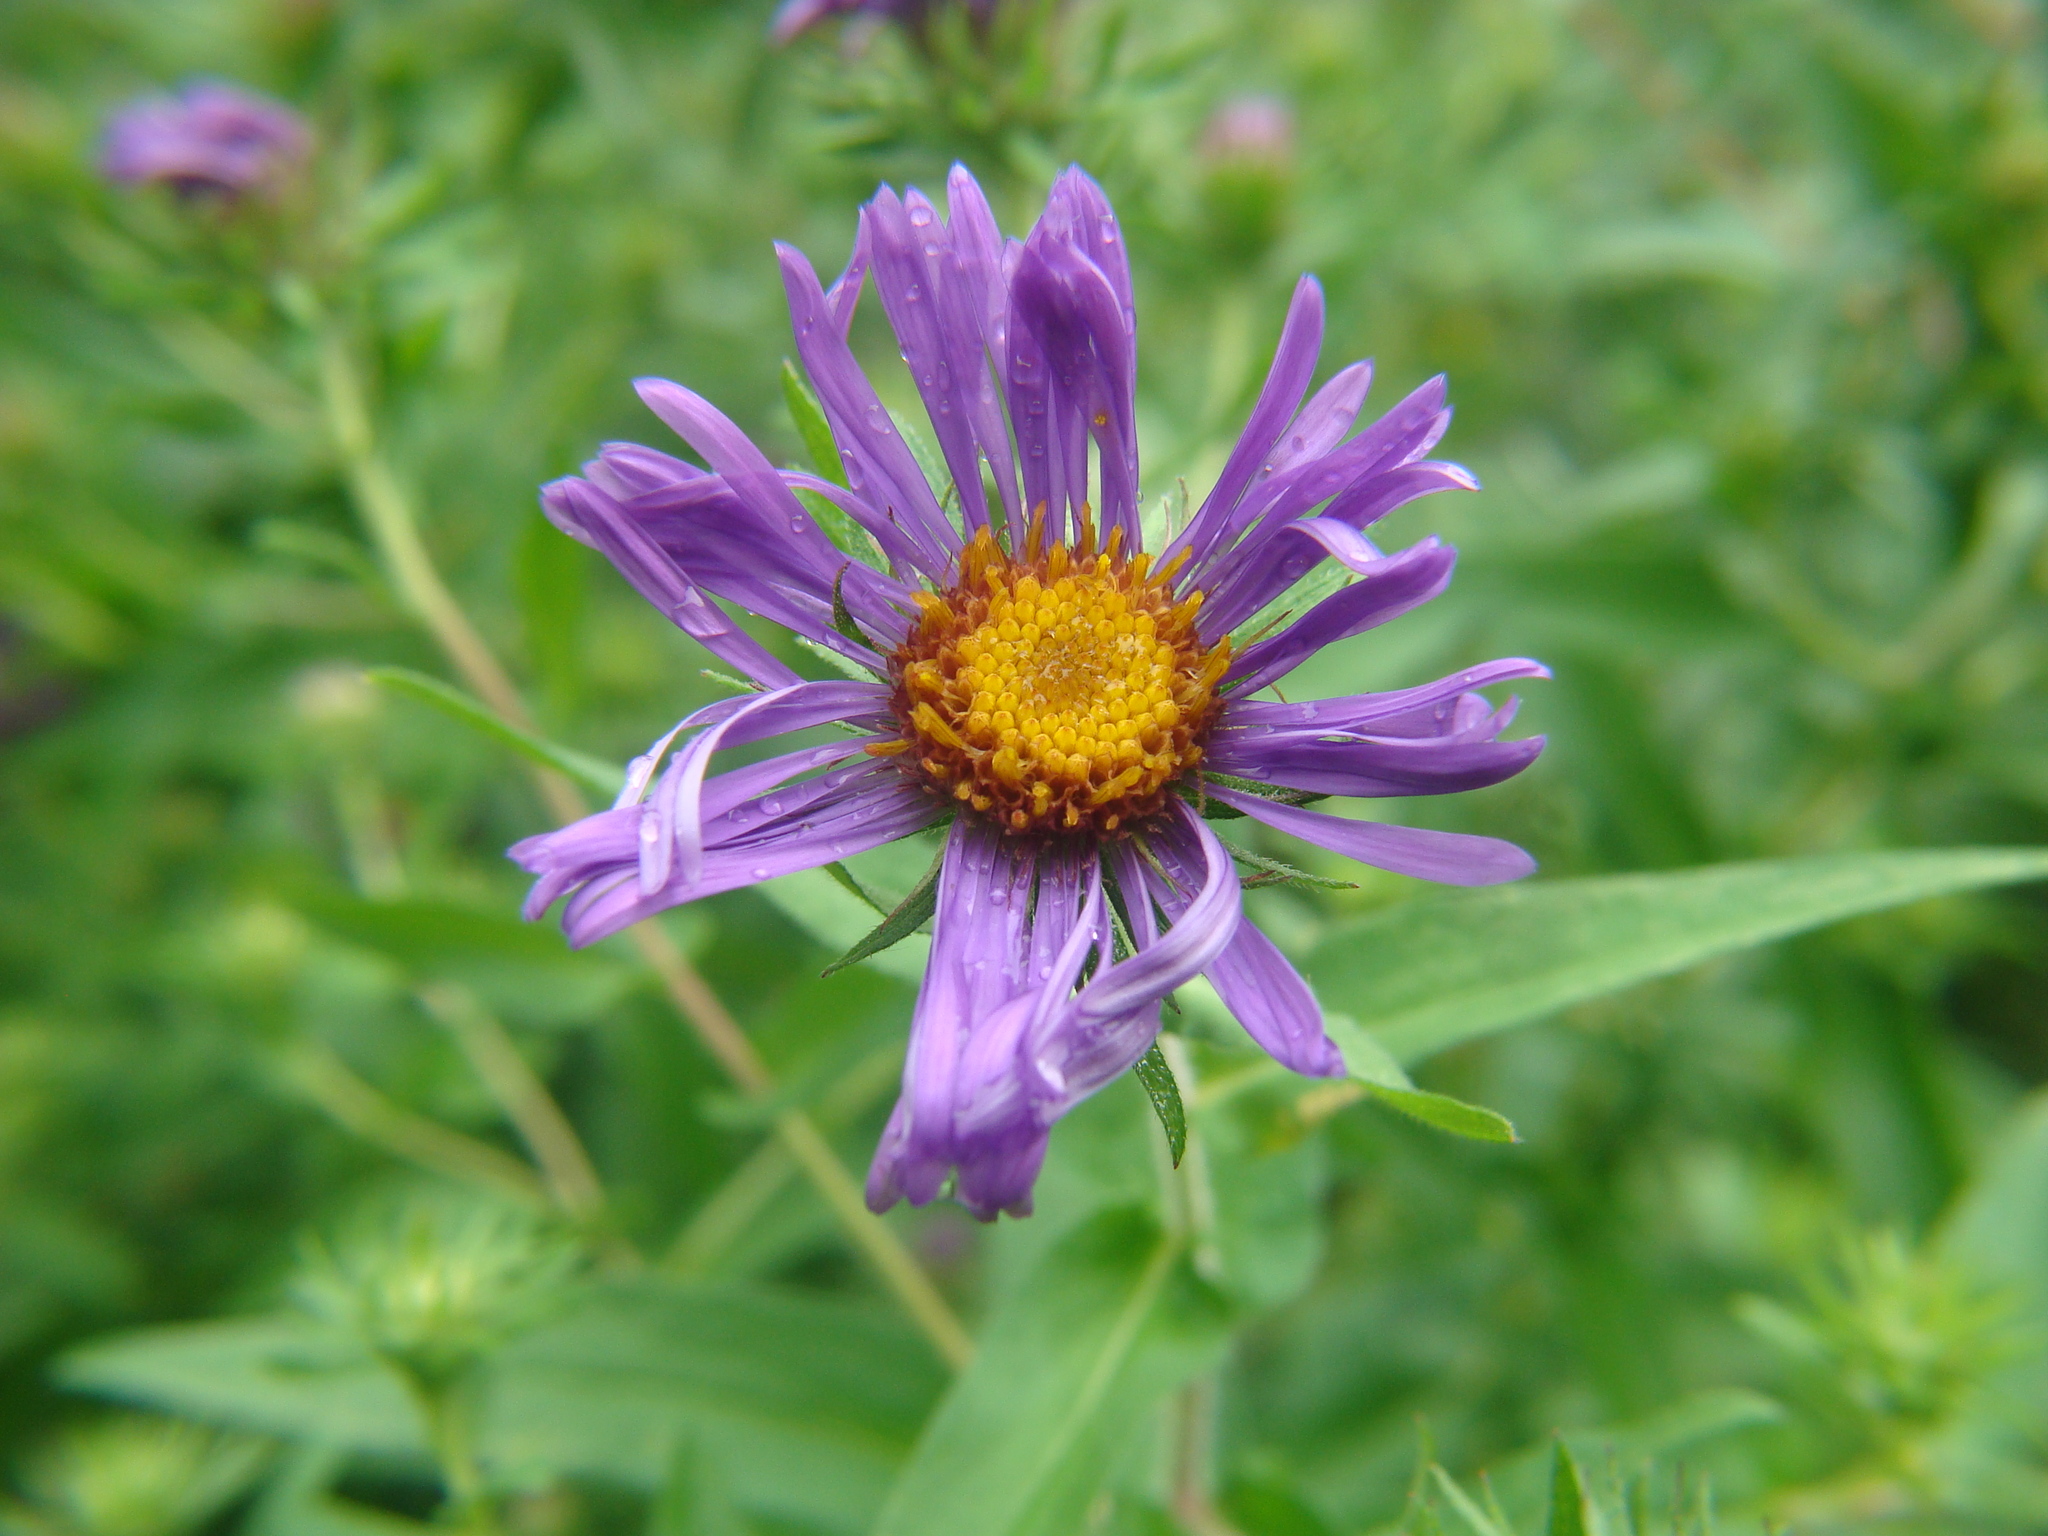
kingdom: Plantae
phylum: Tracheophyta
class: Magnoliopsida
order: Asterales
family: Asteraceae
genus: Symphyotrichum
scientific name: Symphyotrichum novae-angliae
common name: Michaelmas daisy
